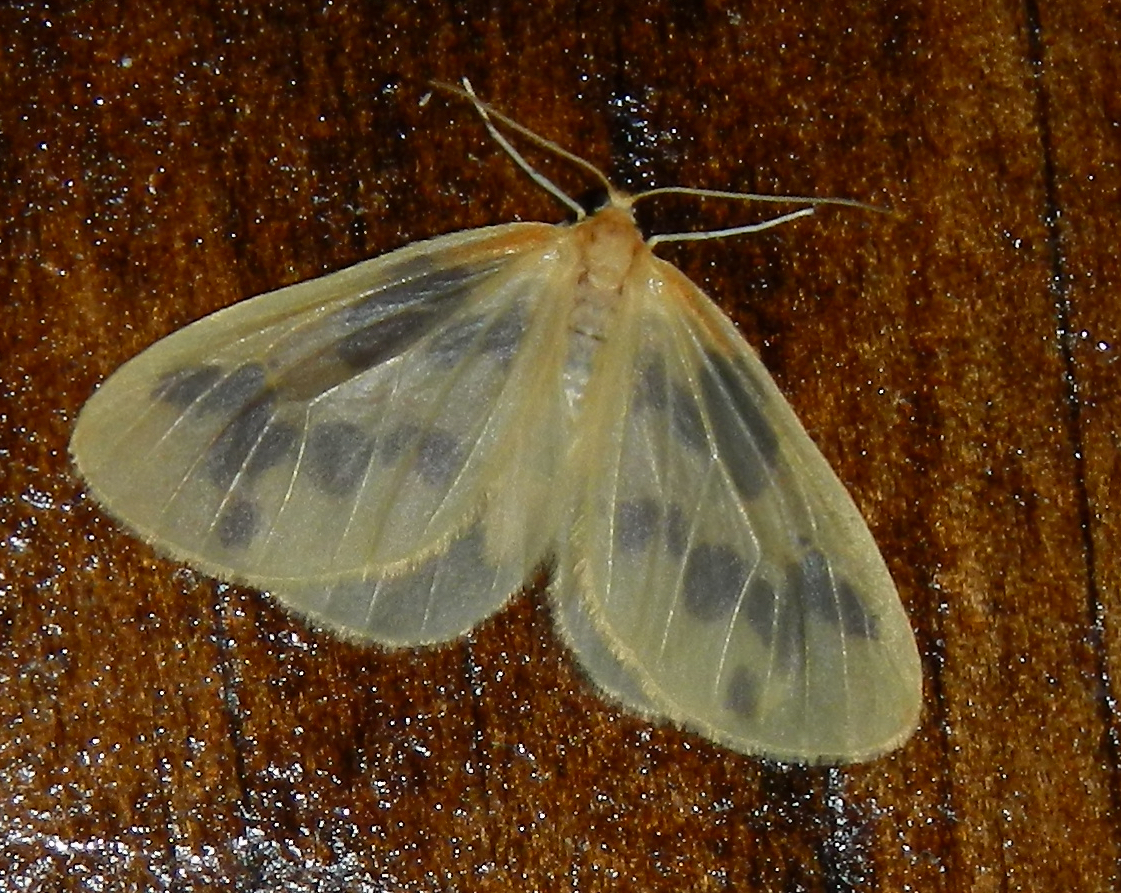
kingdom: Animalia
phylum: Arthropoda
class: Insecta
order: Lepidoptera
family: Geometridae
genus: Eubaphe
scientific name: Eubaphe mendica
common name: Beggar
